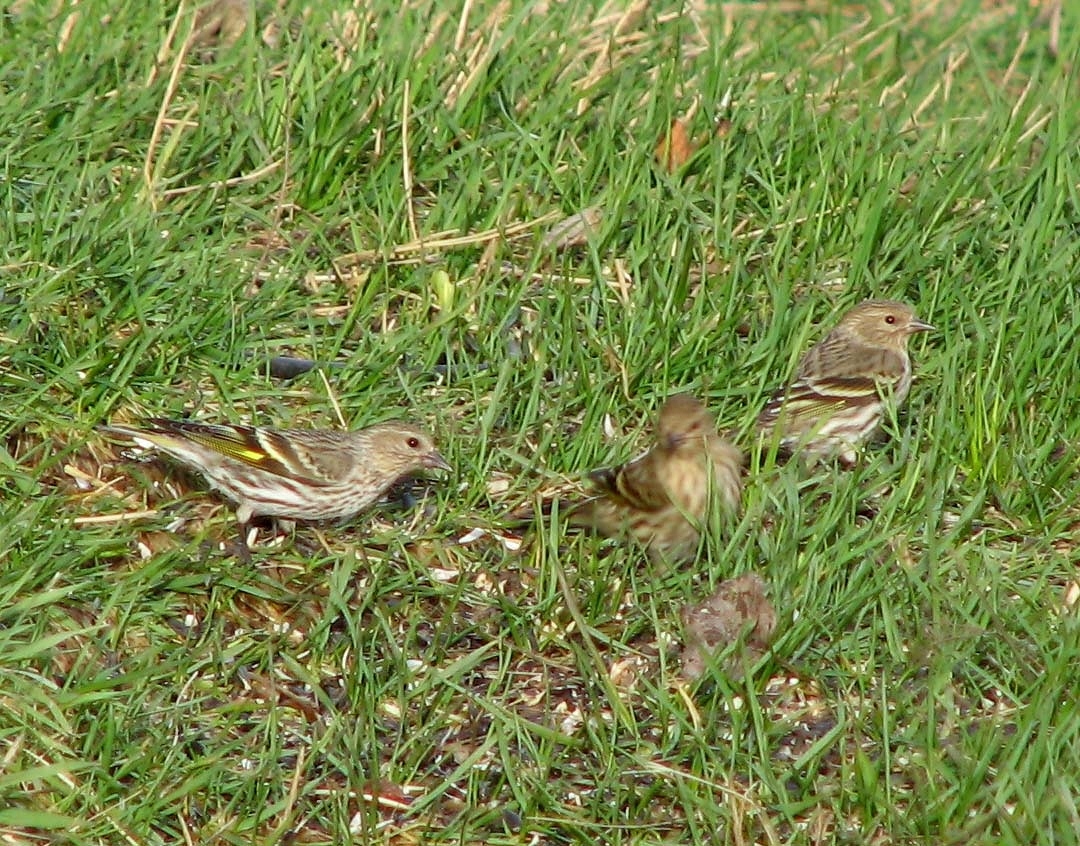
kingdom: Animalia
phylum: Chordata
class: Aves
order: Passeriformes
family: Fringillidae
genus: Spinus
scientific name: Spinus pinus
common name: Pine siskin
